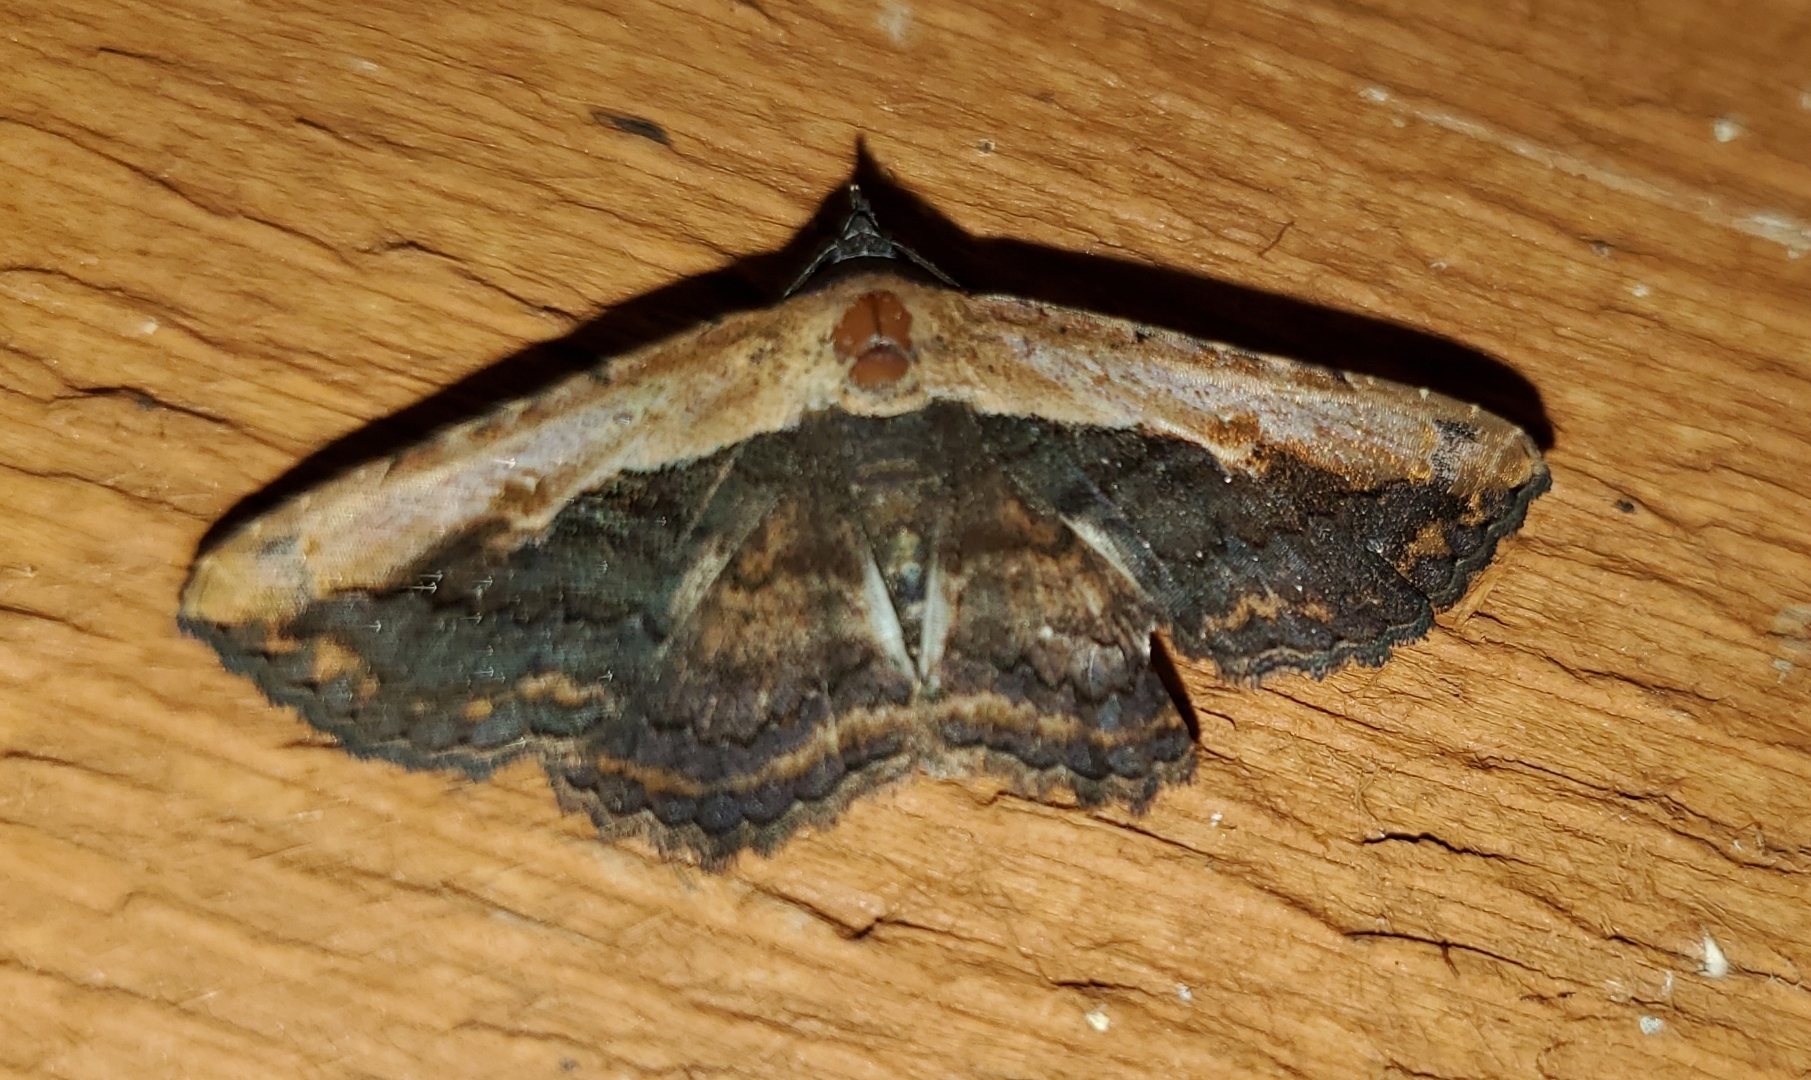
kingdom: Animalia
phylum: Arthropoda
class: Insecta
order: Lepidoptera
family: Erebidae
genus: Selenisa
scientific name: Selenisa sueroides
